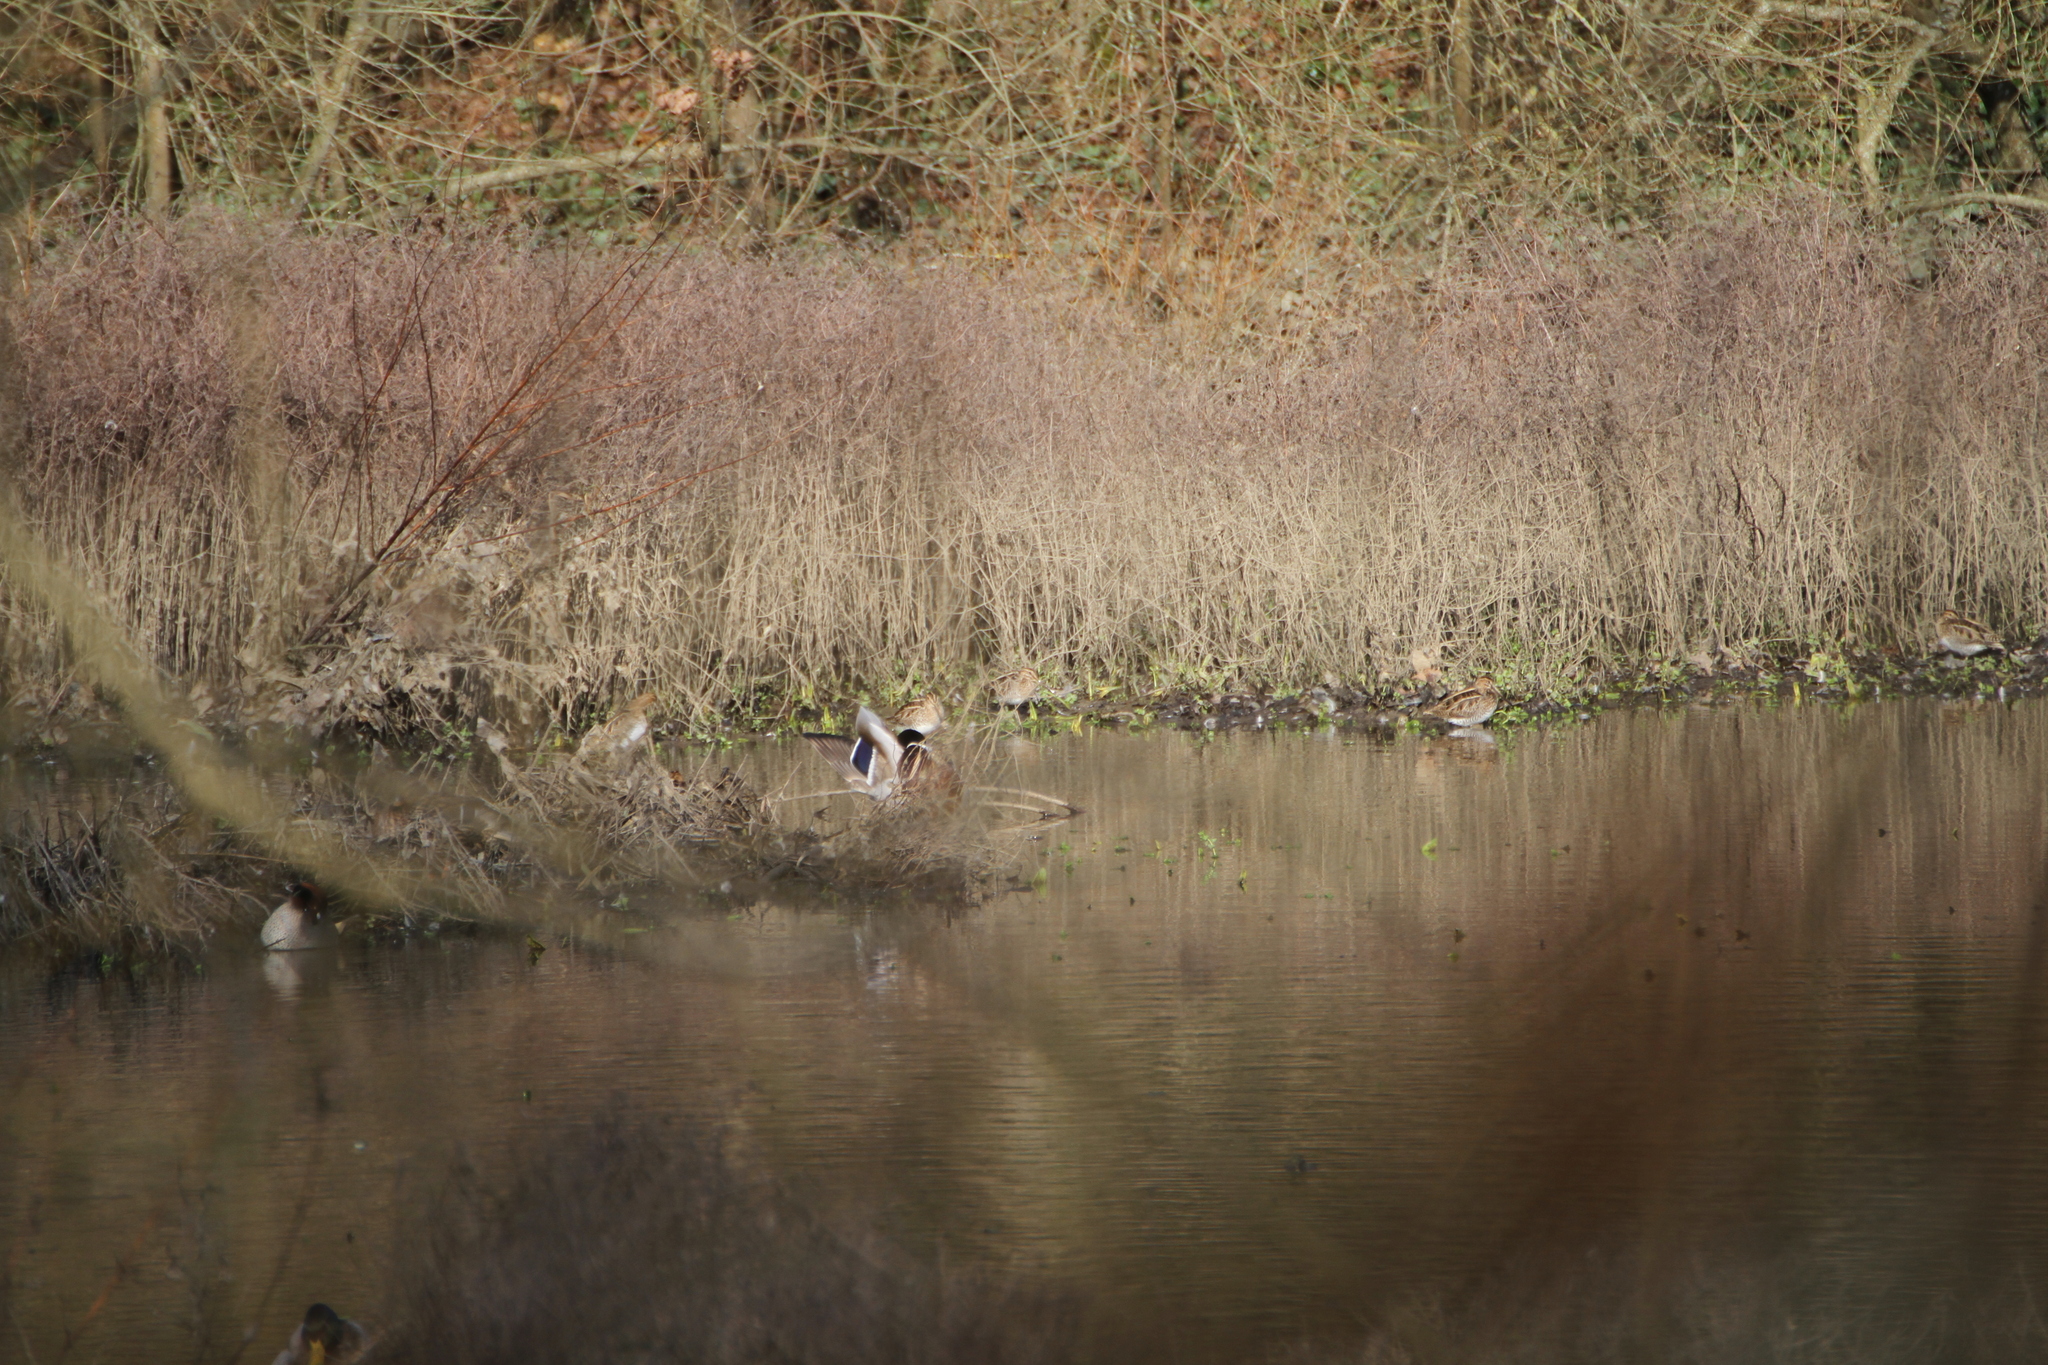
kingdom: Animalia
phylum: Chordata
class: Aves
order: Charadriiformes
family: Scolopacidae
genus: Gallinago
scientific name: Gallinago gallinago
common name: Common snipe
